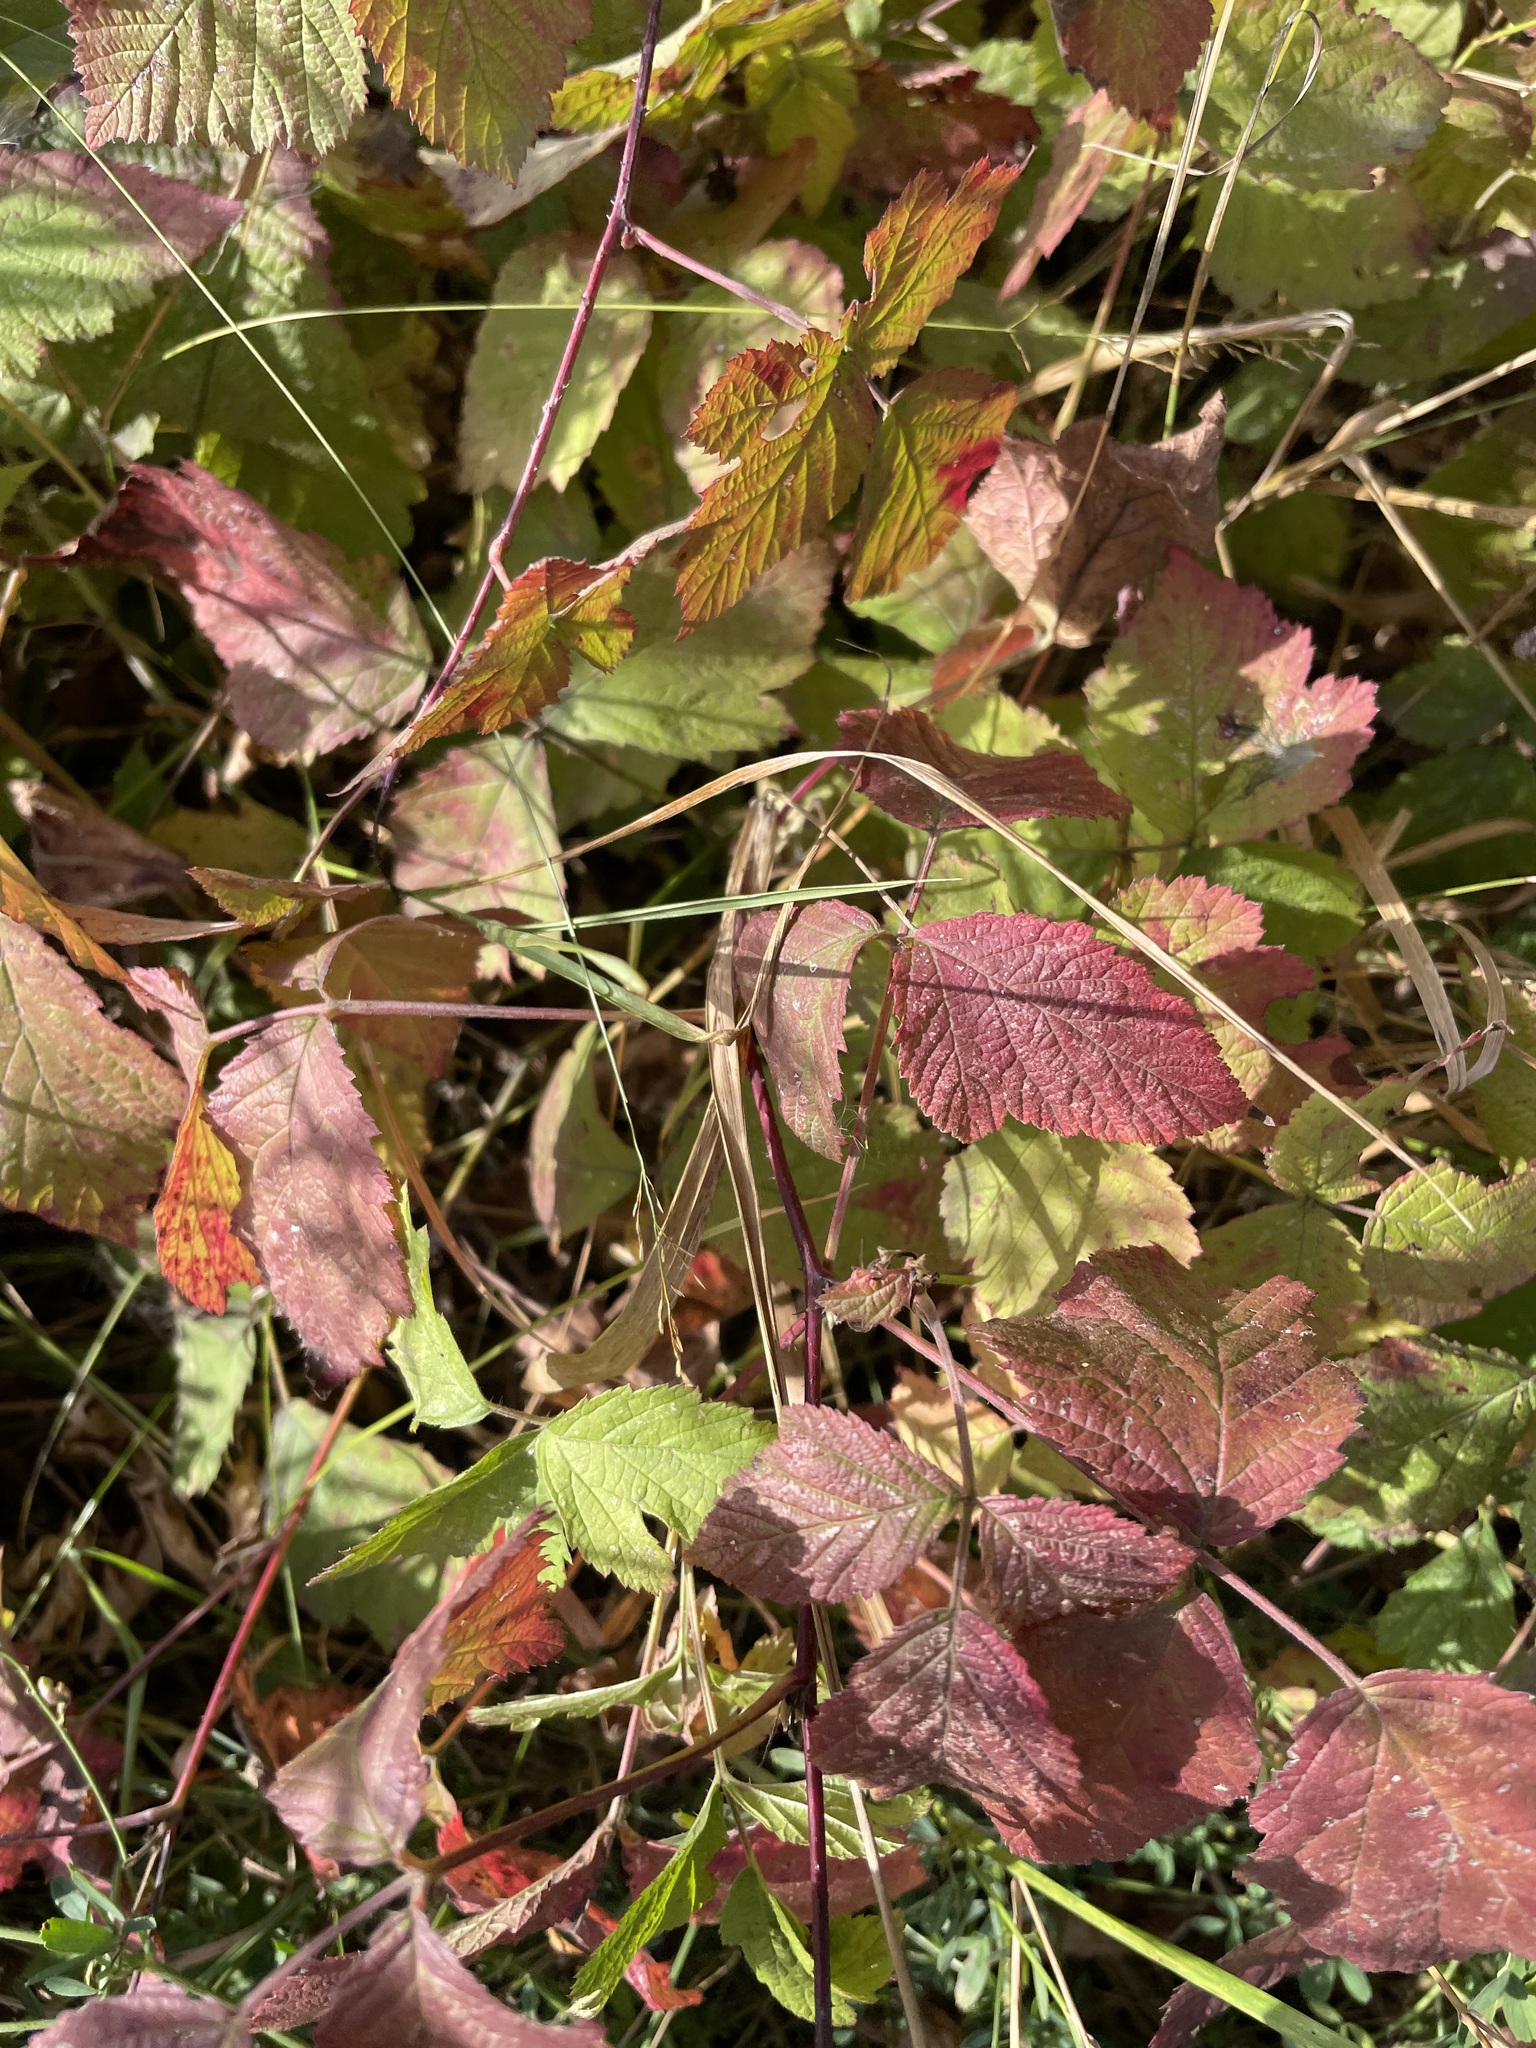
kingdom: Plantae
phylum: Tracheophyta
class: Magnoliopsida
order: Rosales
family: Rosaceae
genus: Rubus
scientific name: Rubus caesius
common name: Dewberry
